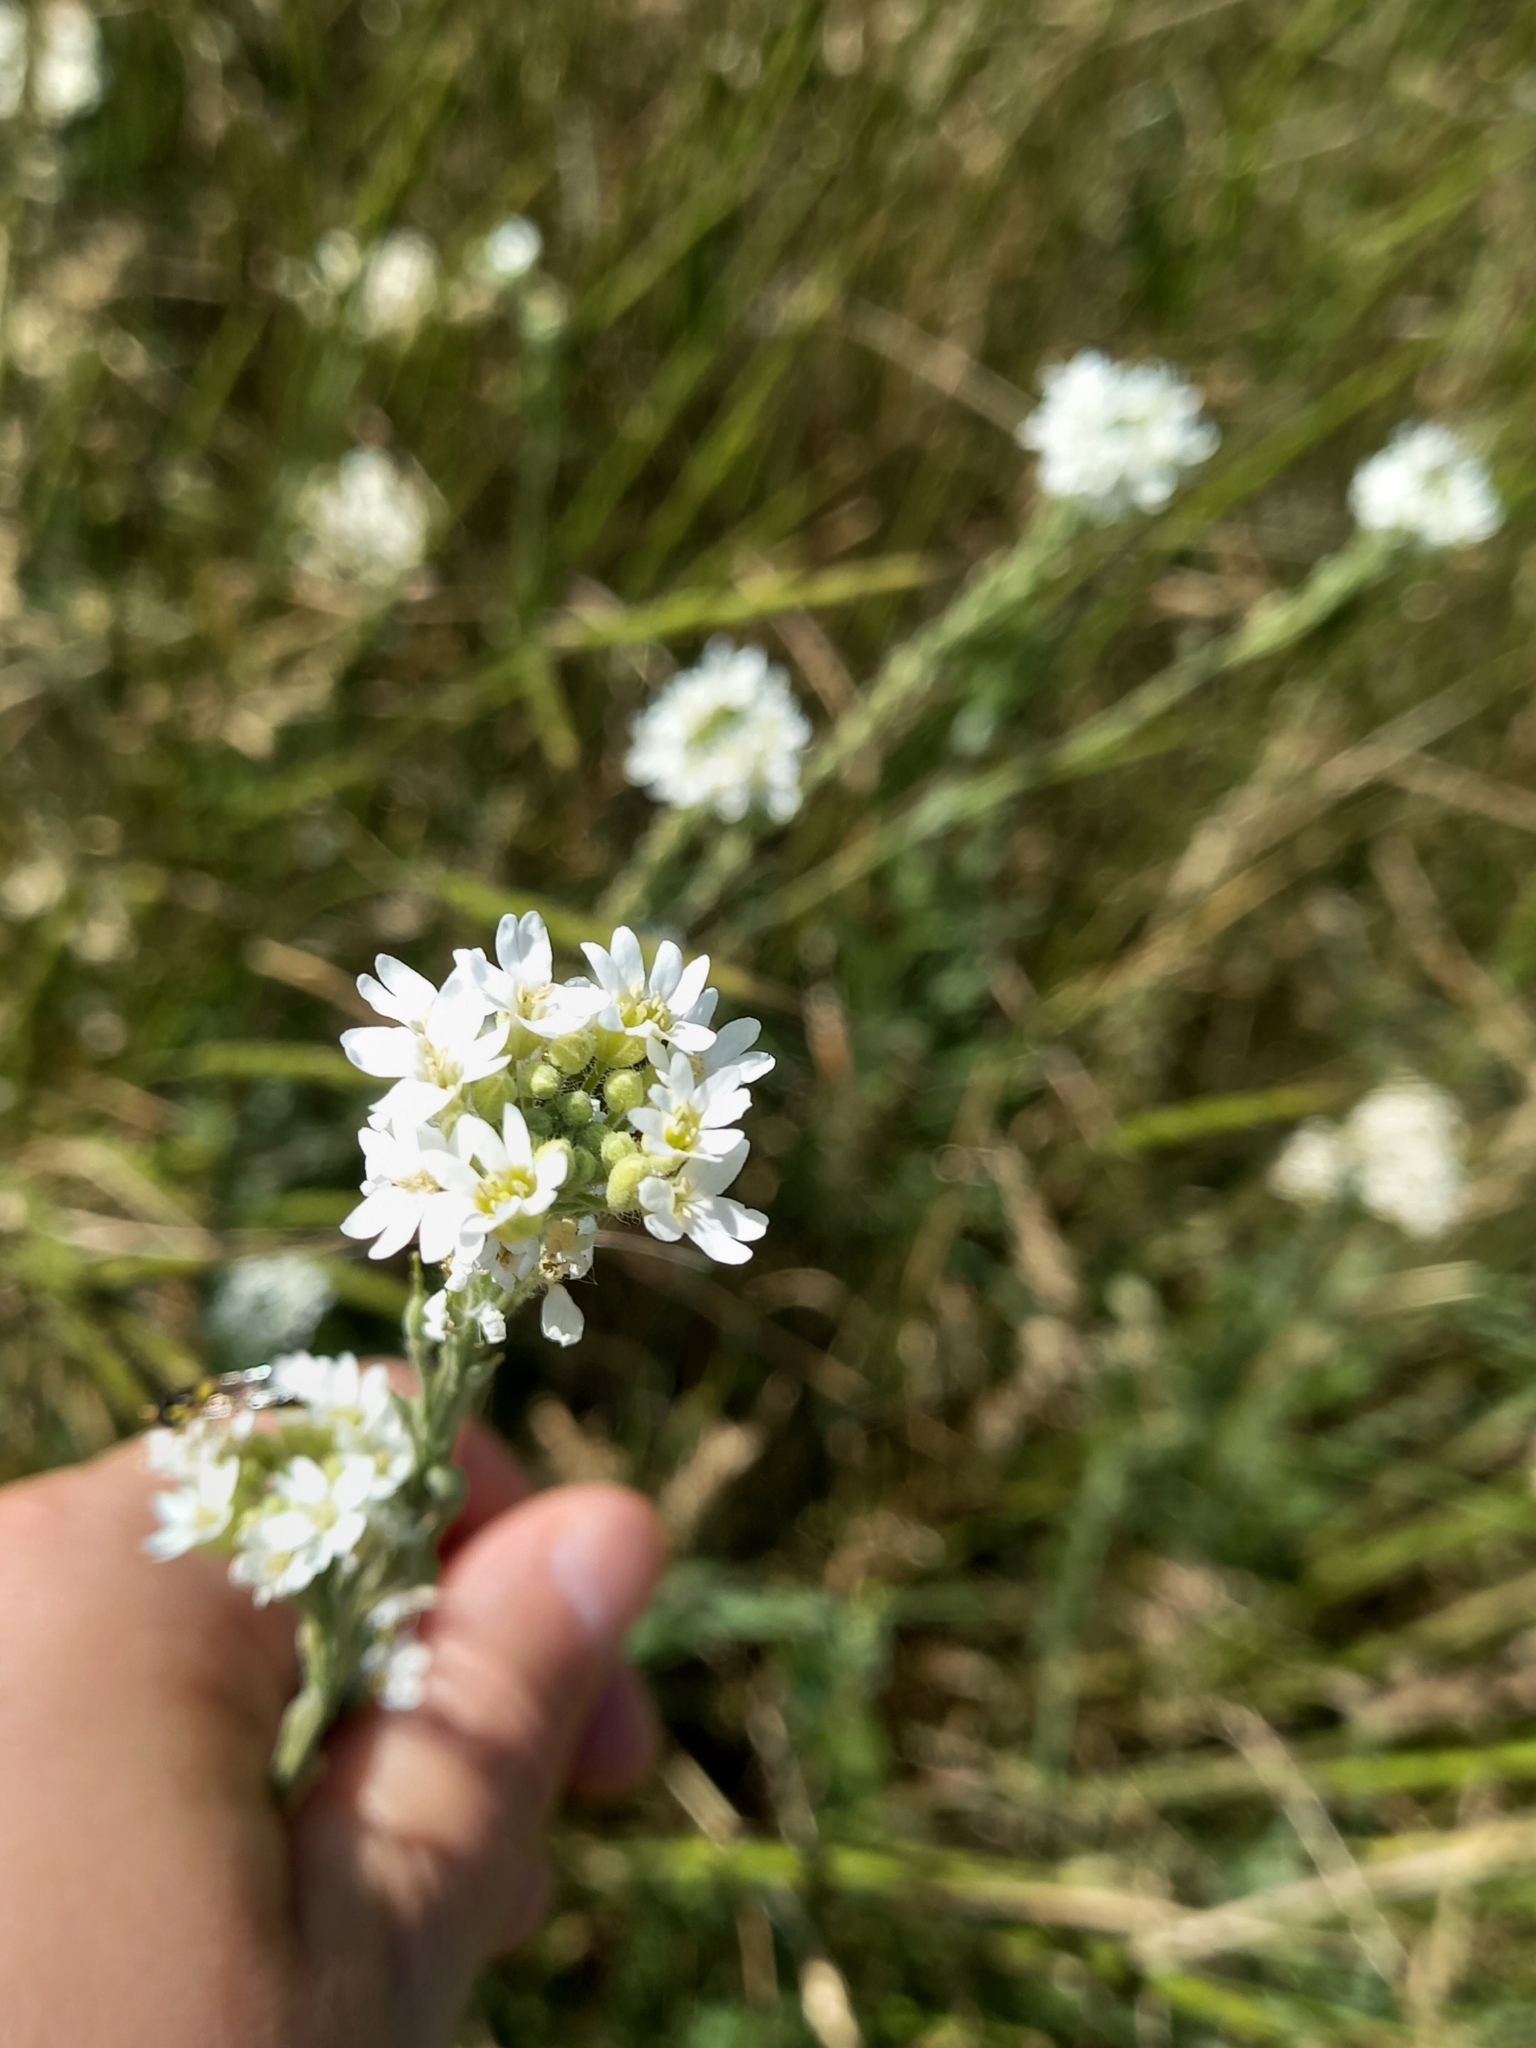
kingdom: Plantae
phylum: Tracheophyta
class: Magnoliopsida
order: Brassicales
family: Brassicaceae
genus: Berteroa
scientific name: Berteroa incana
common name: Hoary alison
